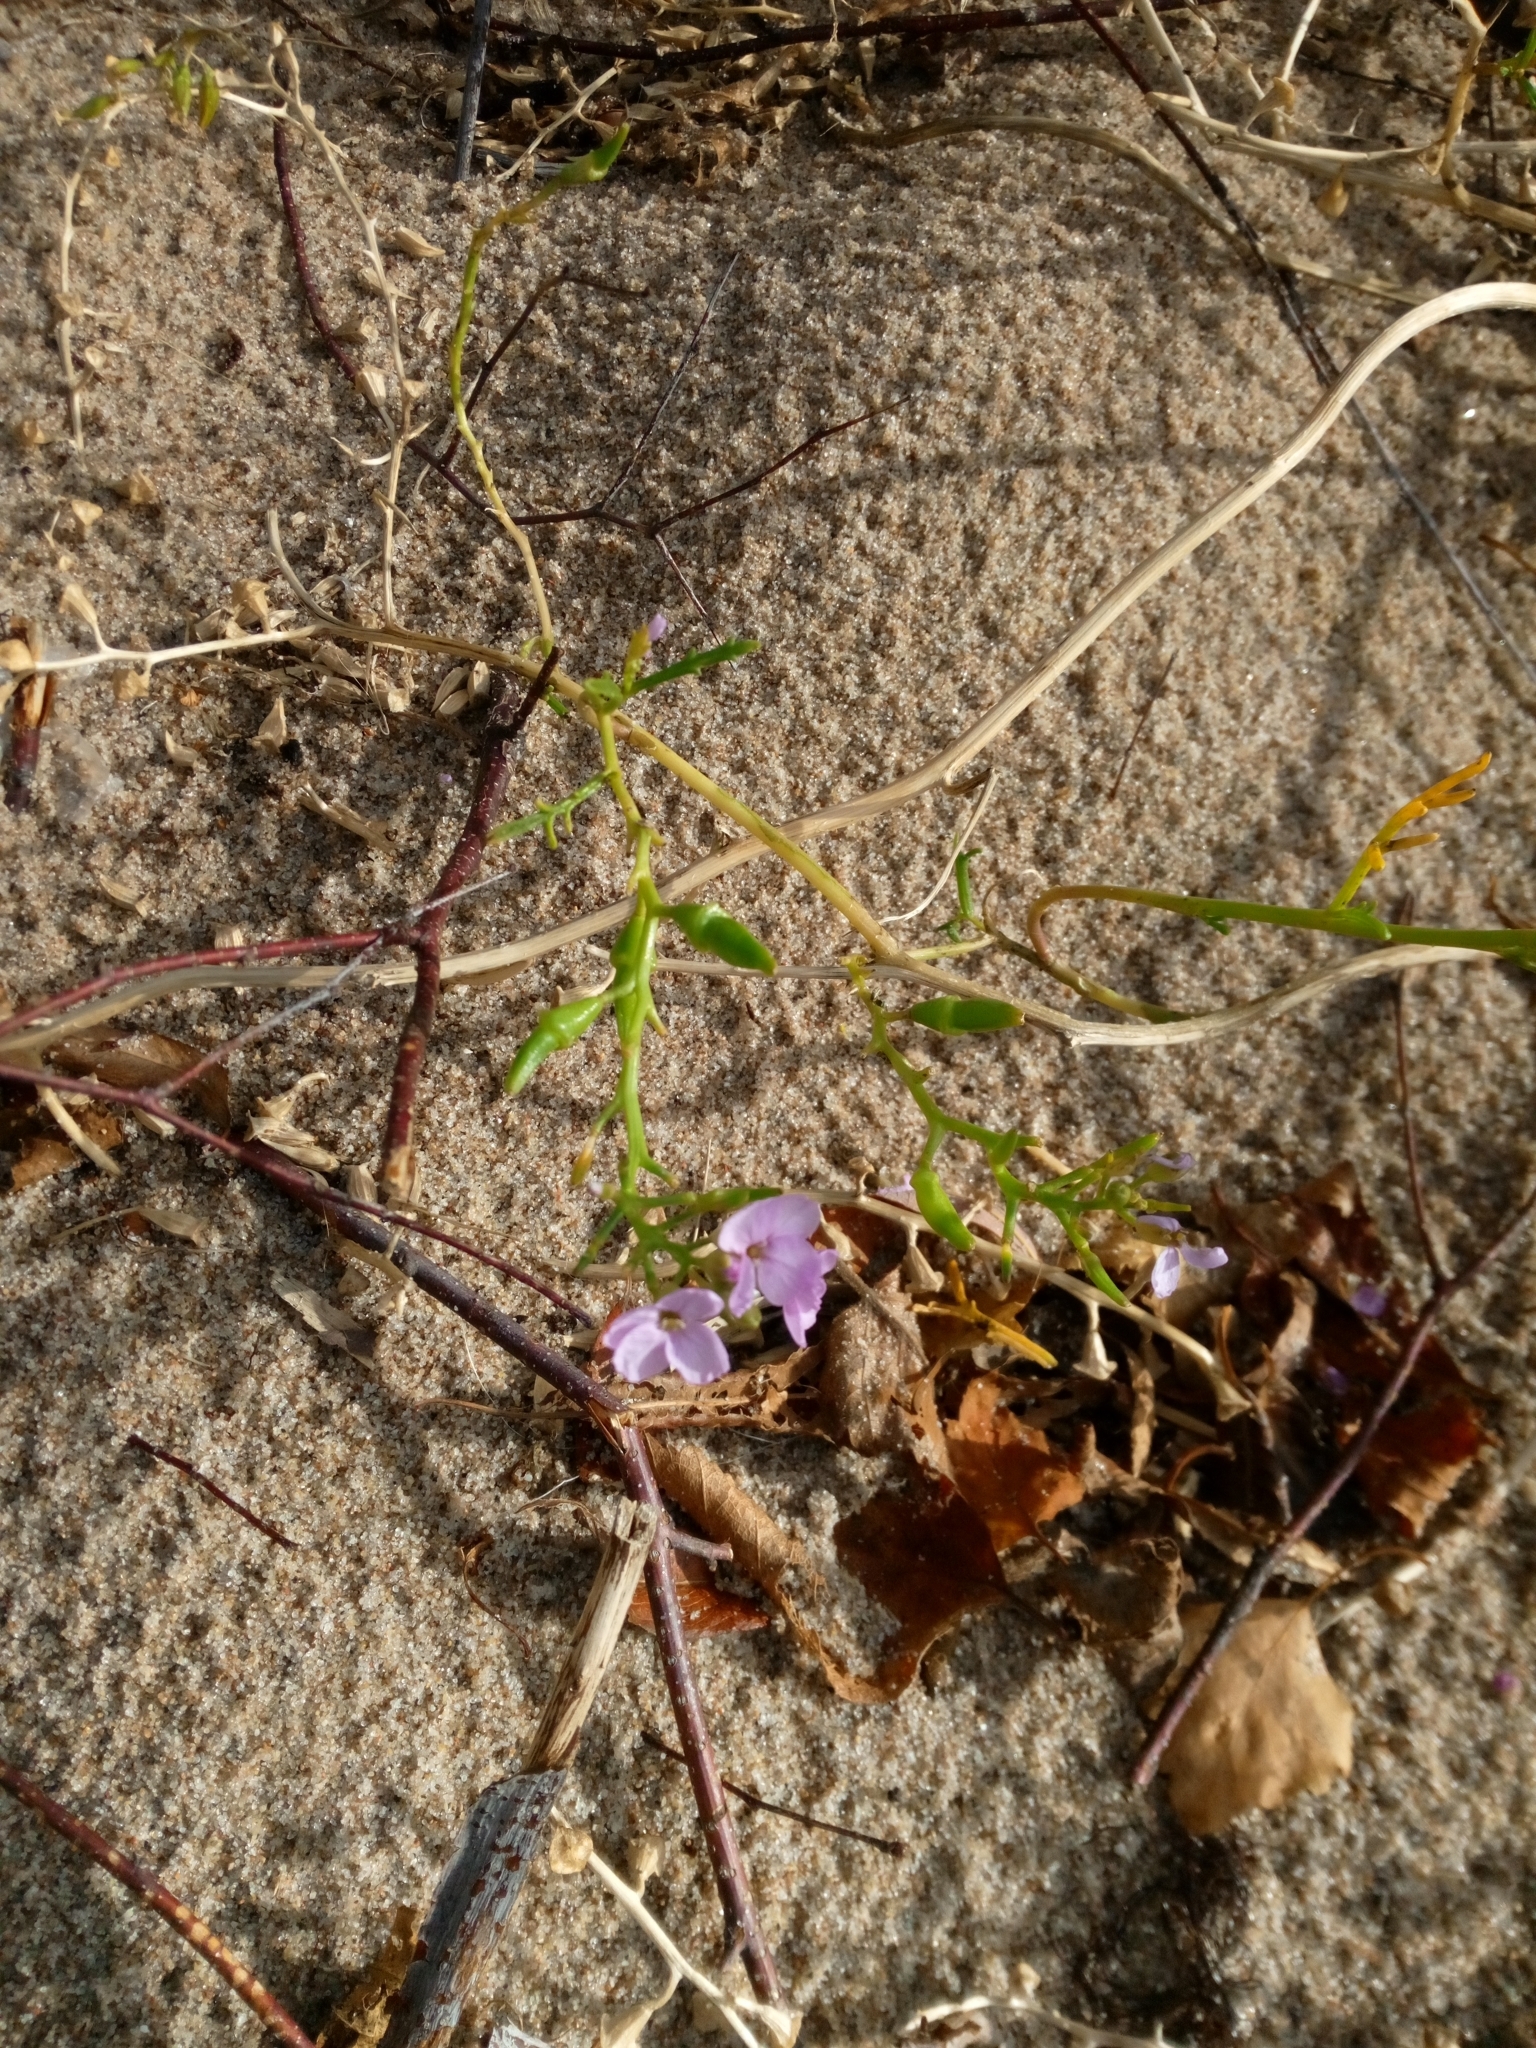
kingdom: Plantae
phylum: Tracheophyta
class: Magnoliopsida
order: Brassicales
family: Brassicaceae
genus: Cakile
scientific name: Cakile maritima
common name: Sea rocket
